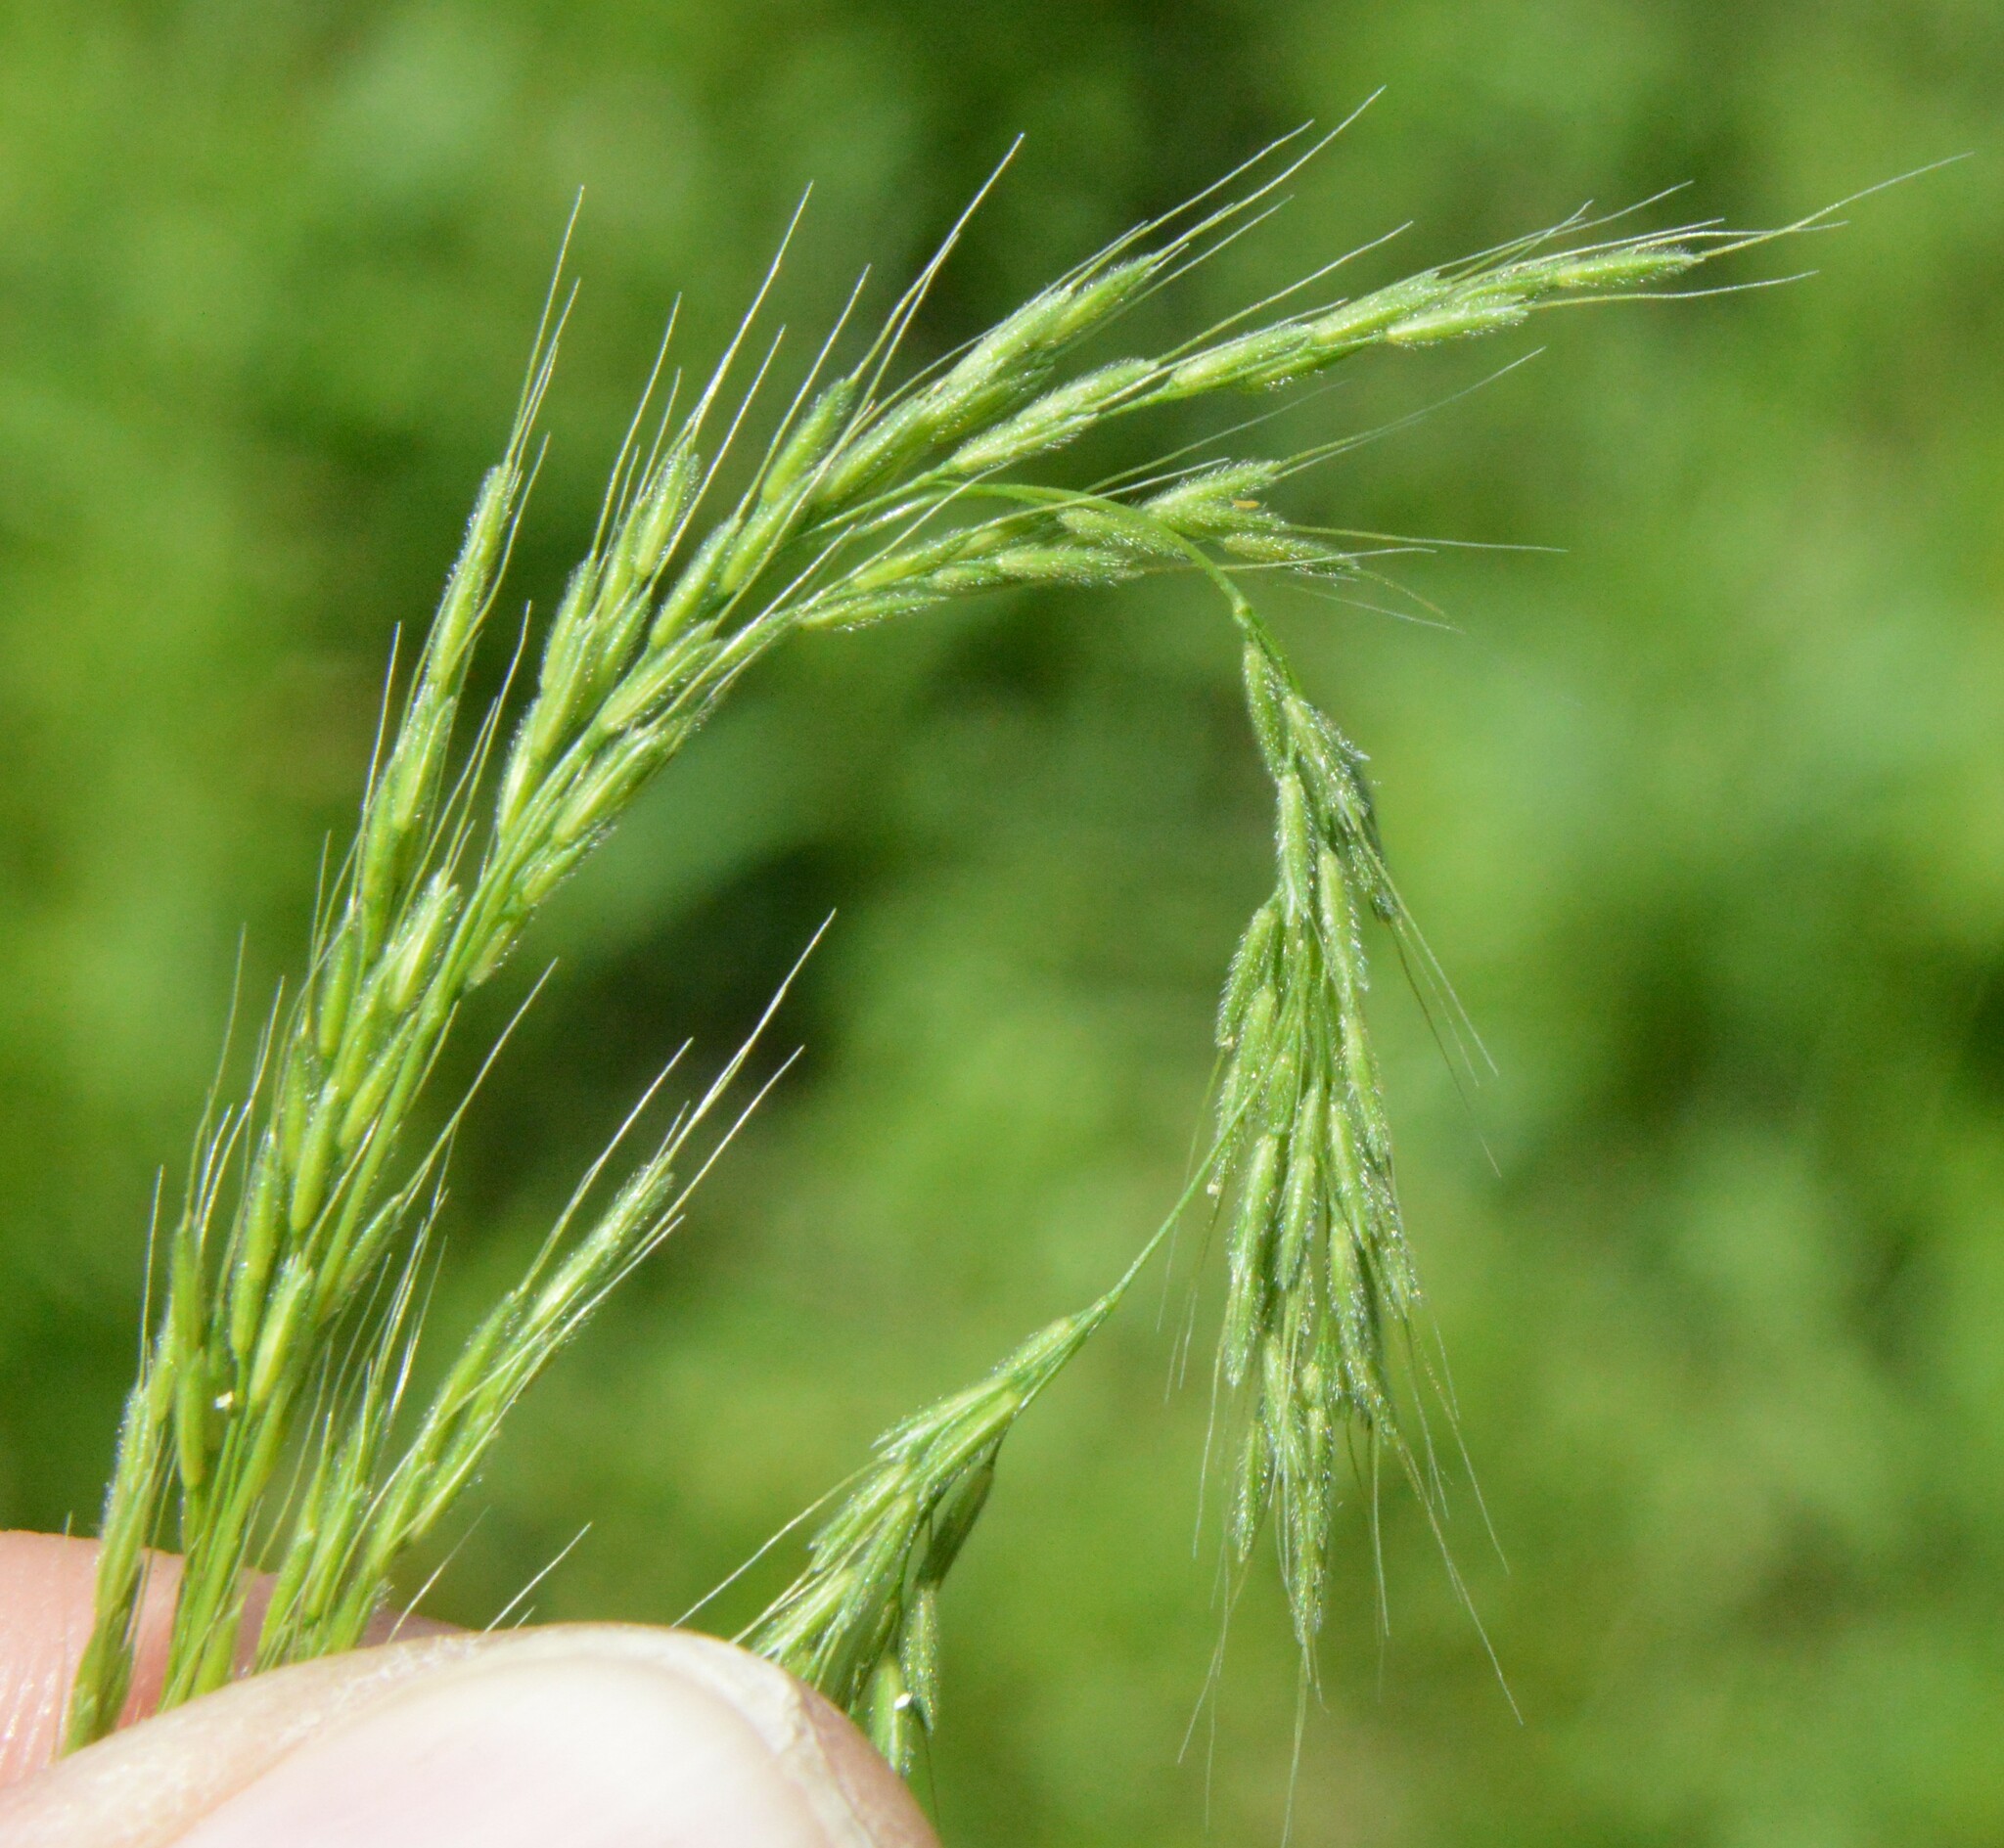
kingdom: Plantae
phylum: Tracheophyta
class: Liliopsida
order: Poales
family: Poaceae
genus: Limnodea
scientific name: Limnodea arkansana
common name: Ozark-grass
